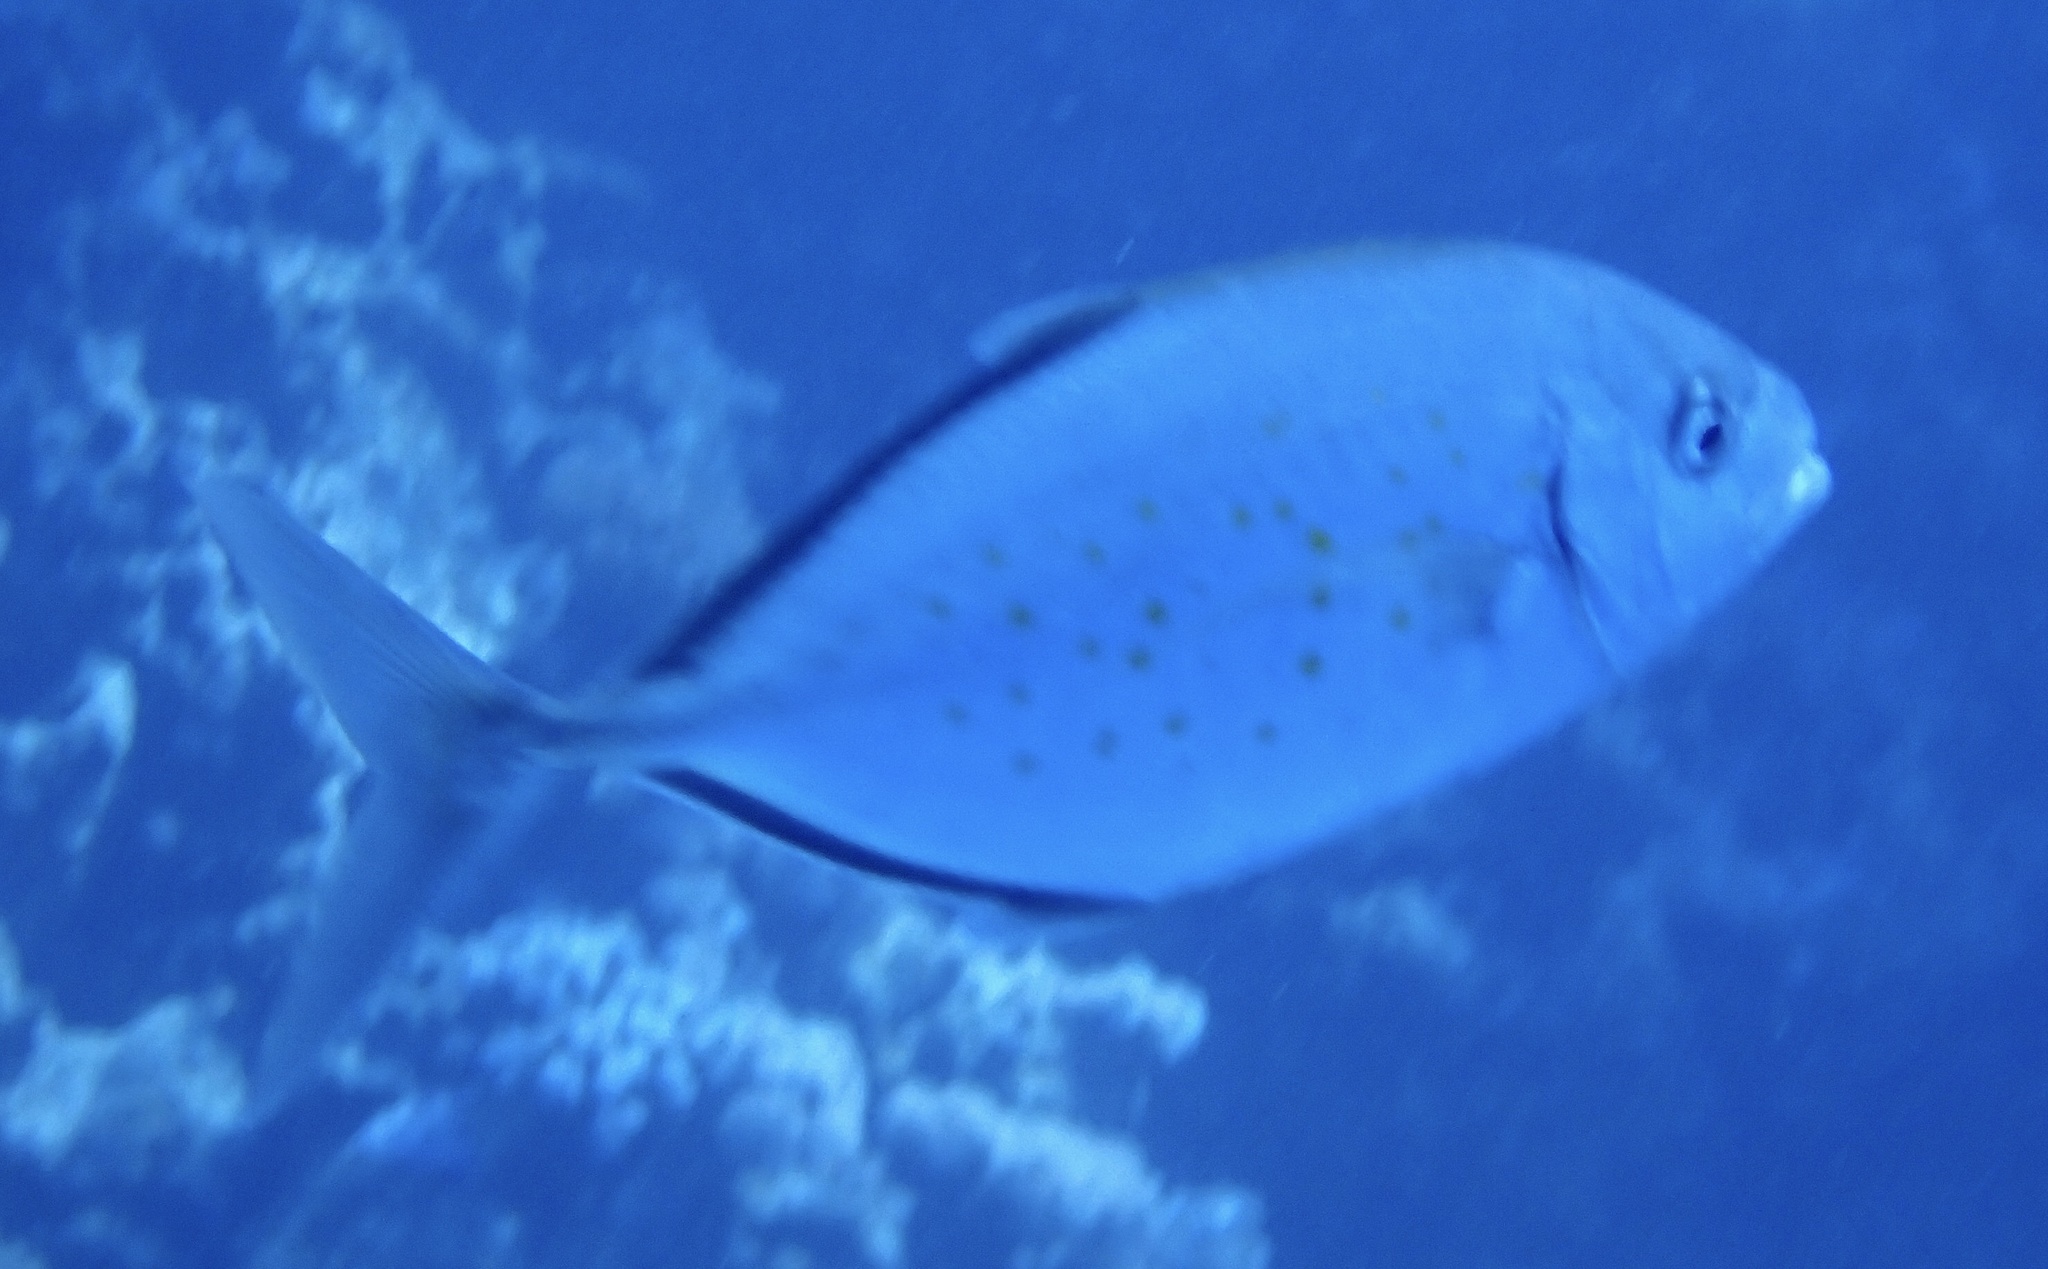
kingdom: Animalia
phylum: Chordata
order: Perciformes
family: Carangidae
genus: Flavocaranx
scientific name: Flavocaranx bajad
